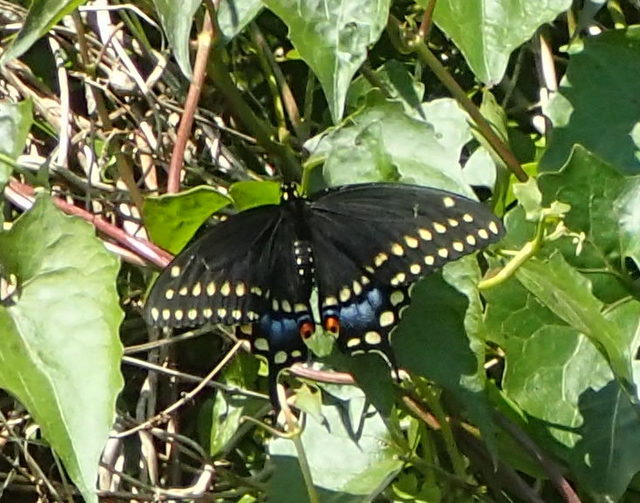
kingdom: Animalia
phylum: Arthropoda
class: Insecta
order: Lepidoptera
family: Papilionidae
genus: Papilio
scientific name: Papilio polyxenes
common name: Black swallowtail
